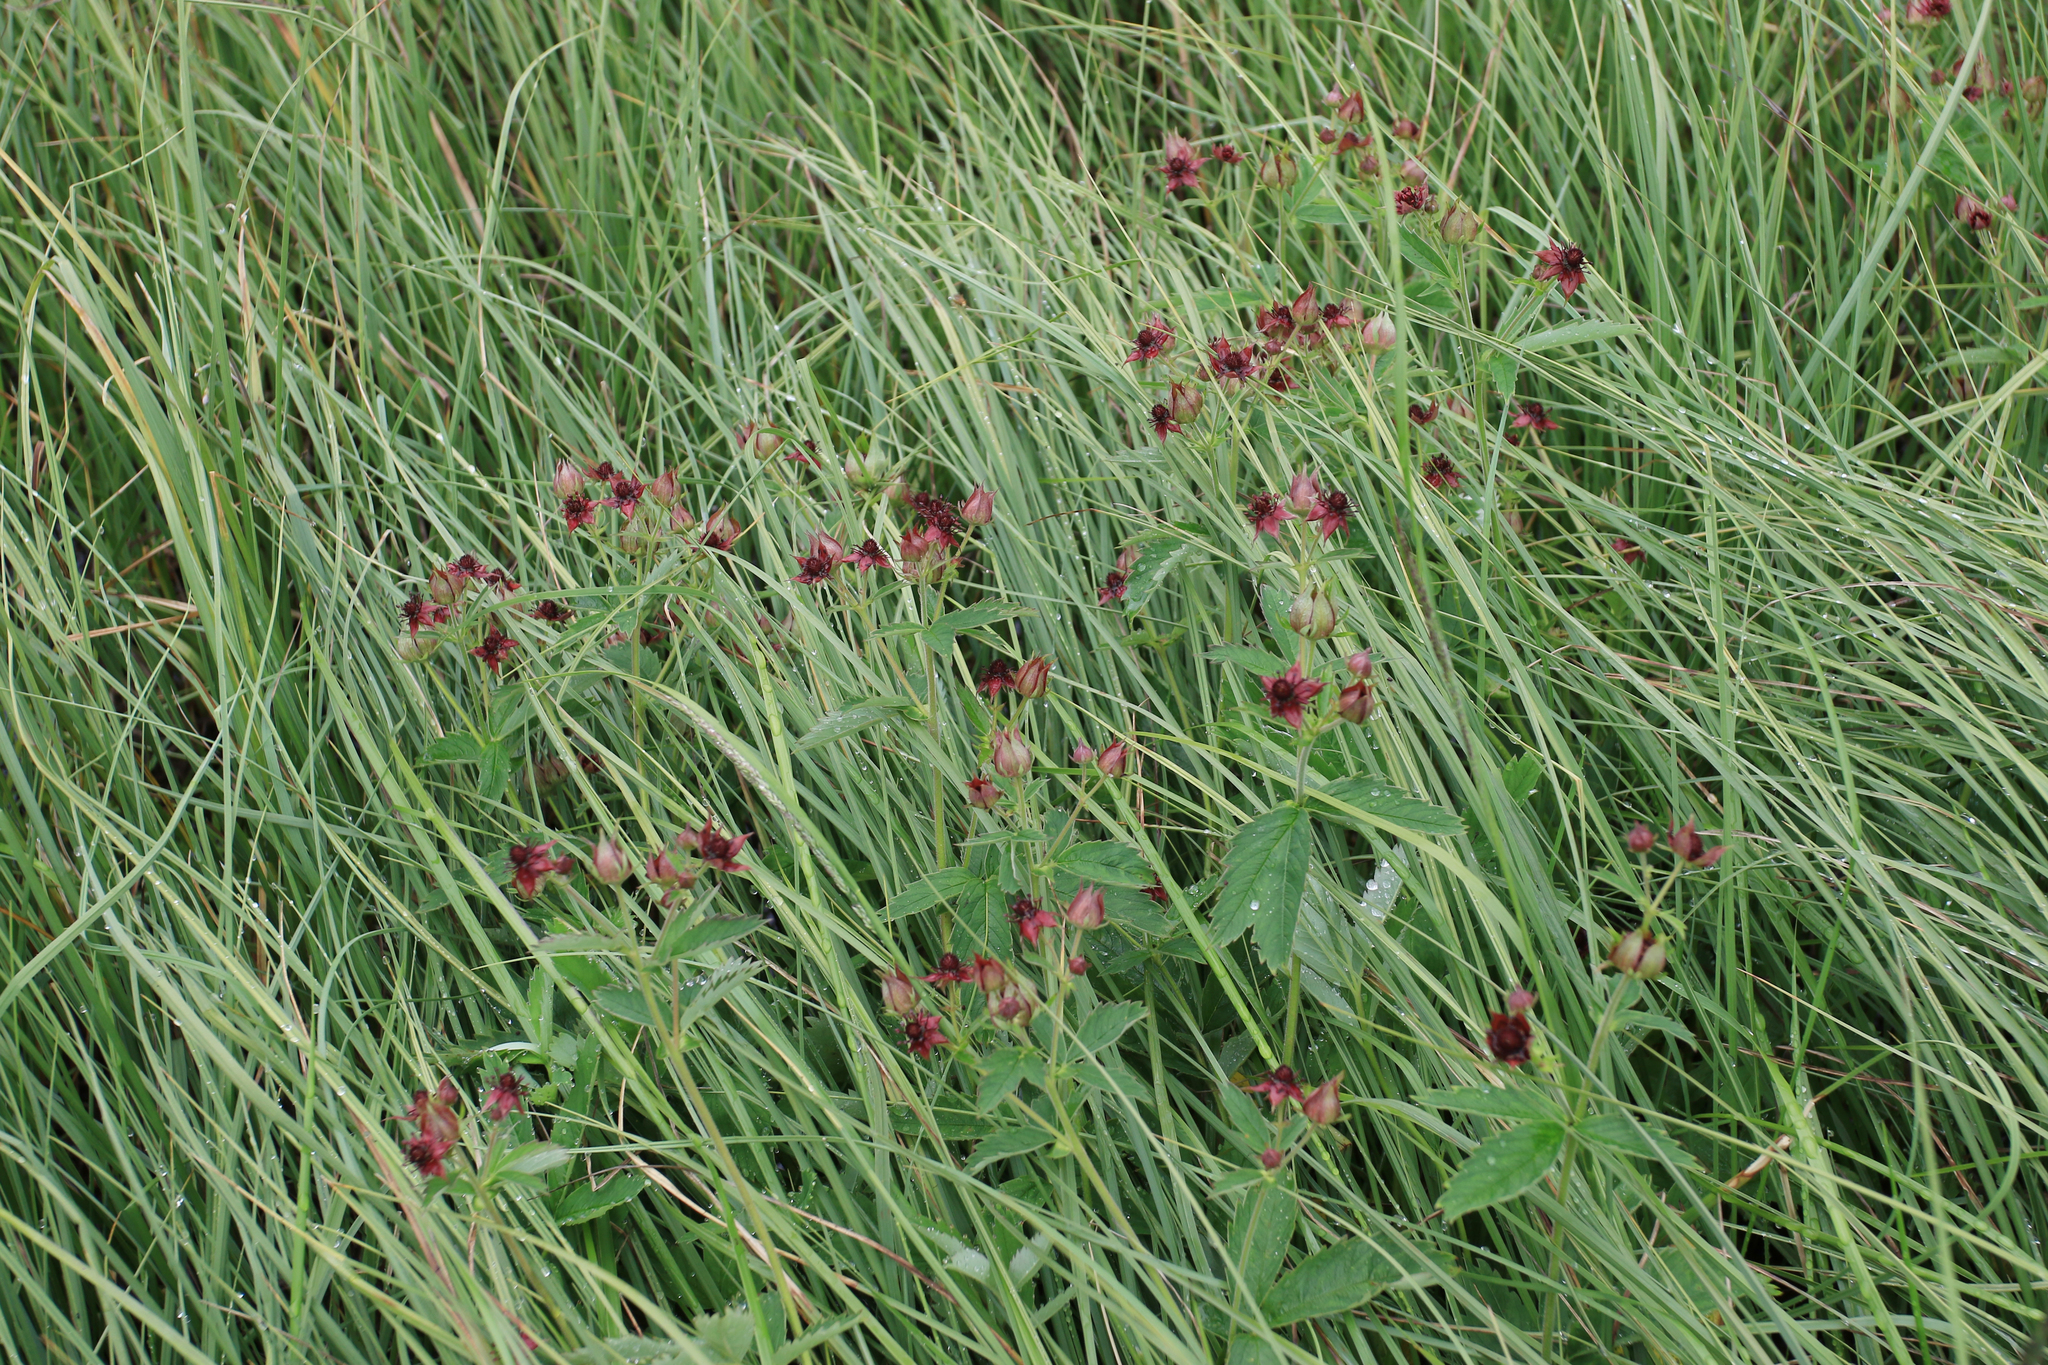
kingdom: Plantae
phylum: Tracheophyta
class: Magnoliopsida
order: Rosales
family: Rosaceae
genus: Comarum
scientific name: Comarum palustre
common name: Marsh cinquefoil
